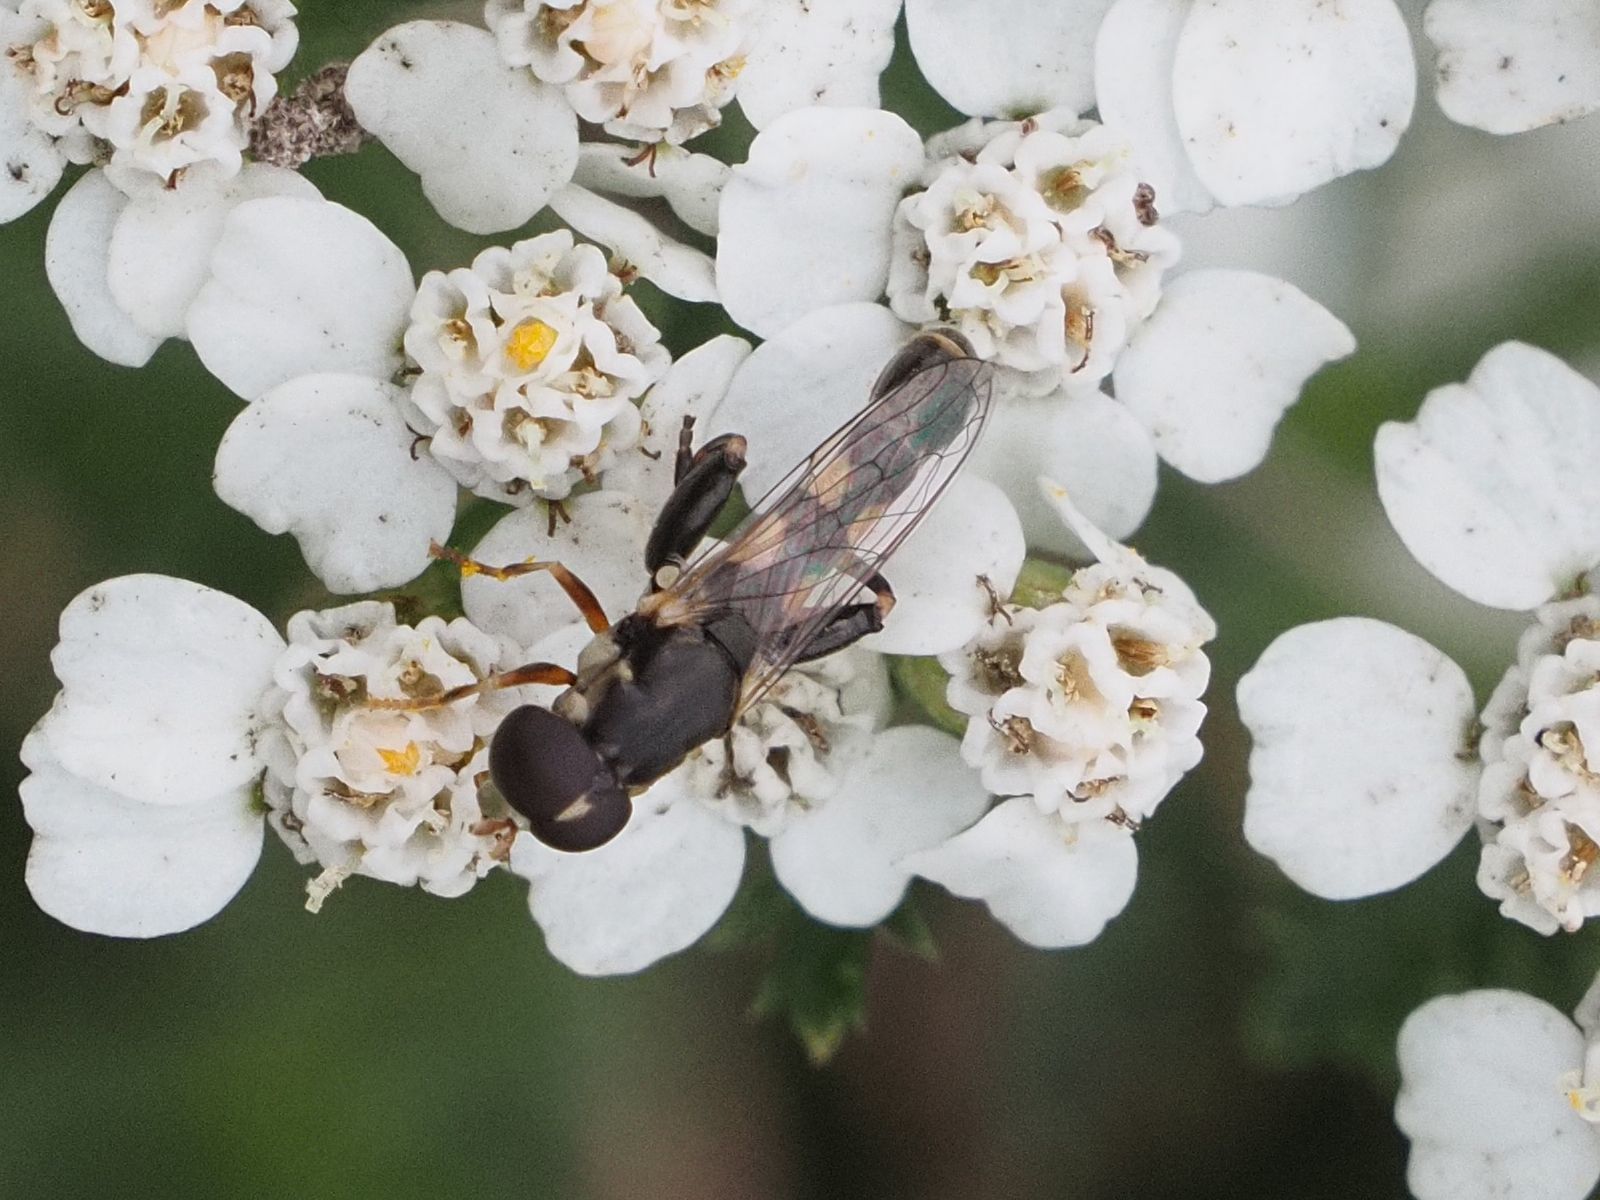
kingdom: Animalia
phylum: Arthropoda
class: Insecta
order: Diptera
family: Syrphidae
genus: Syritta
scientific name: Syritta pipiens
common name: Hover fly
